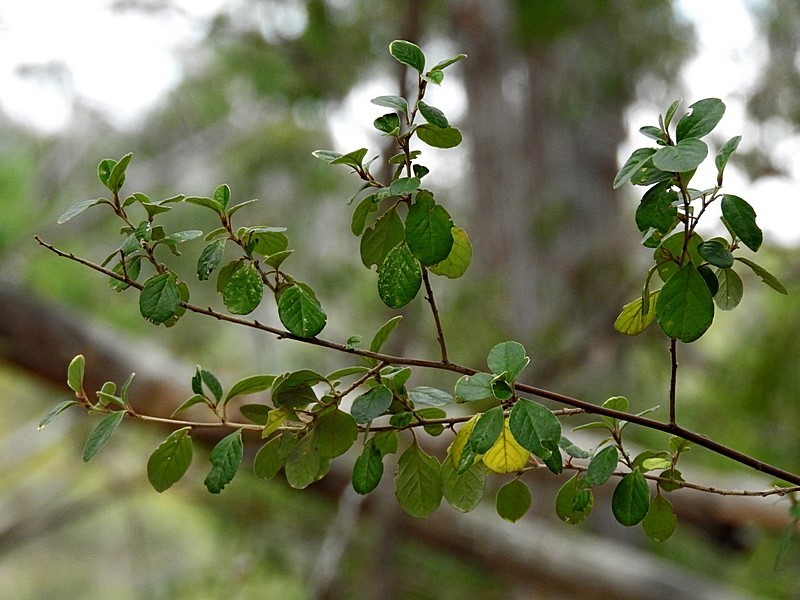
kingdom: Plantae
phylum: Tracheophyta
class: Magnoliopsida
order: Rosales
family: Rhamnaceae
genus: Pomaderris
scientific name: Pomaderris brogoensis
